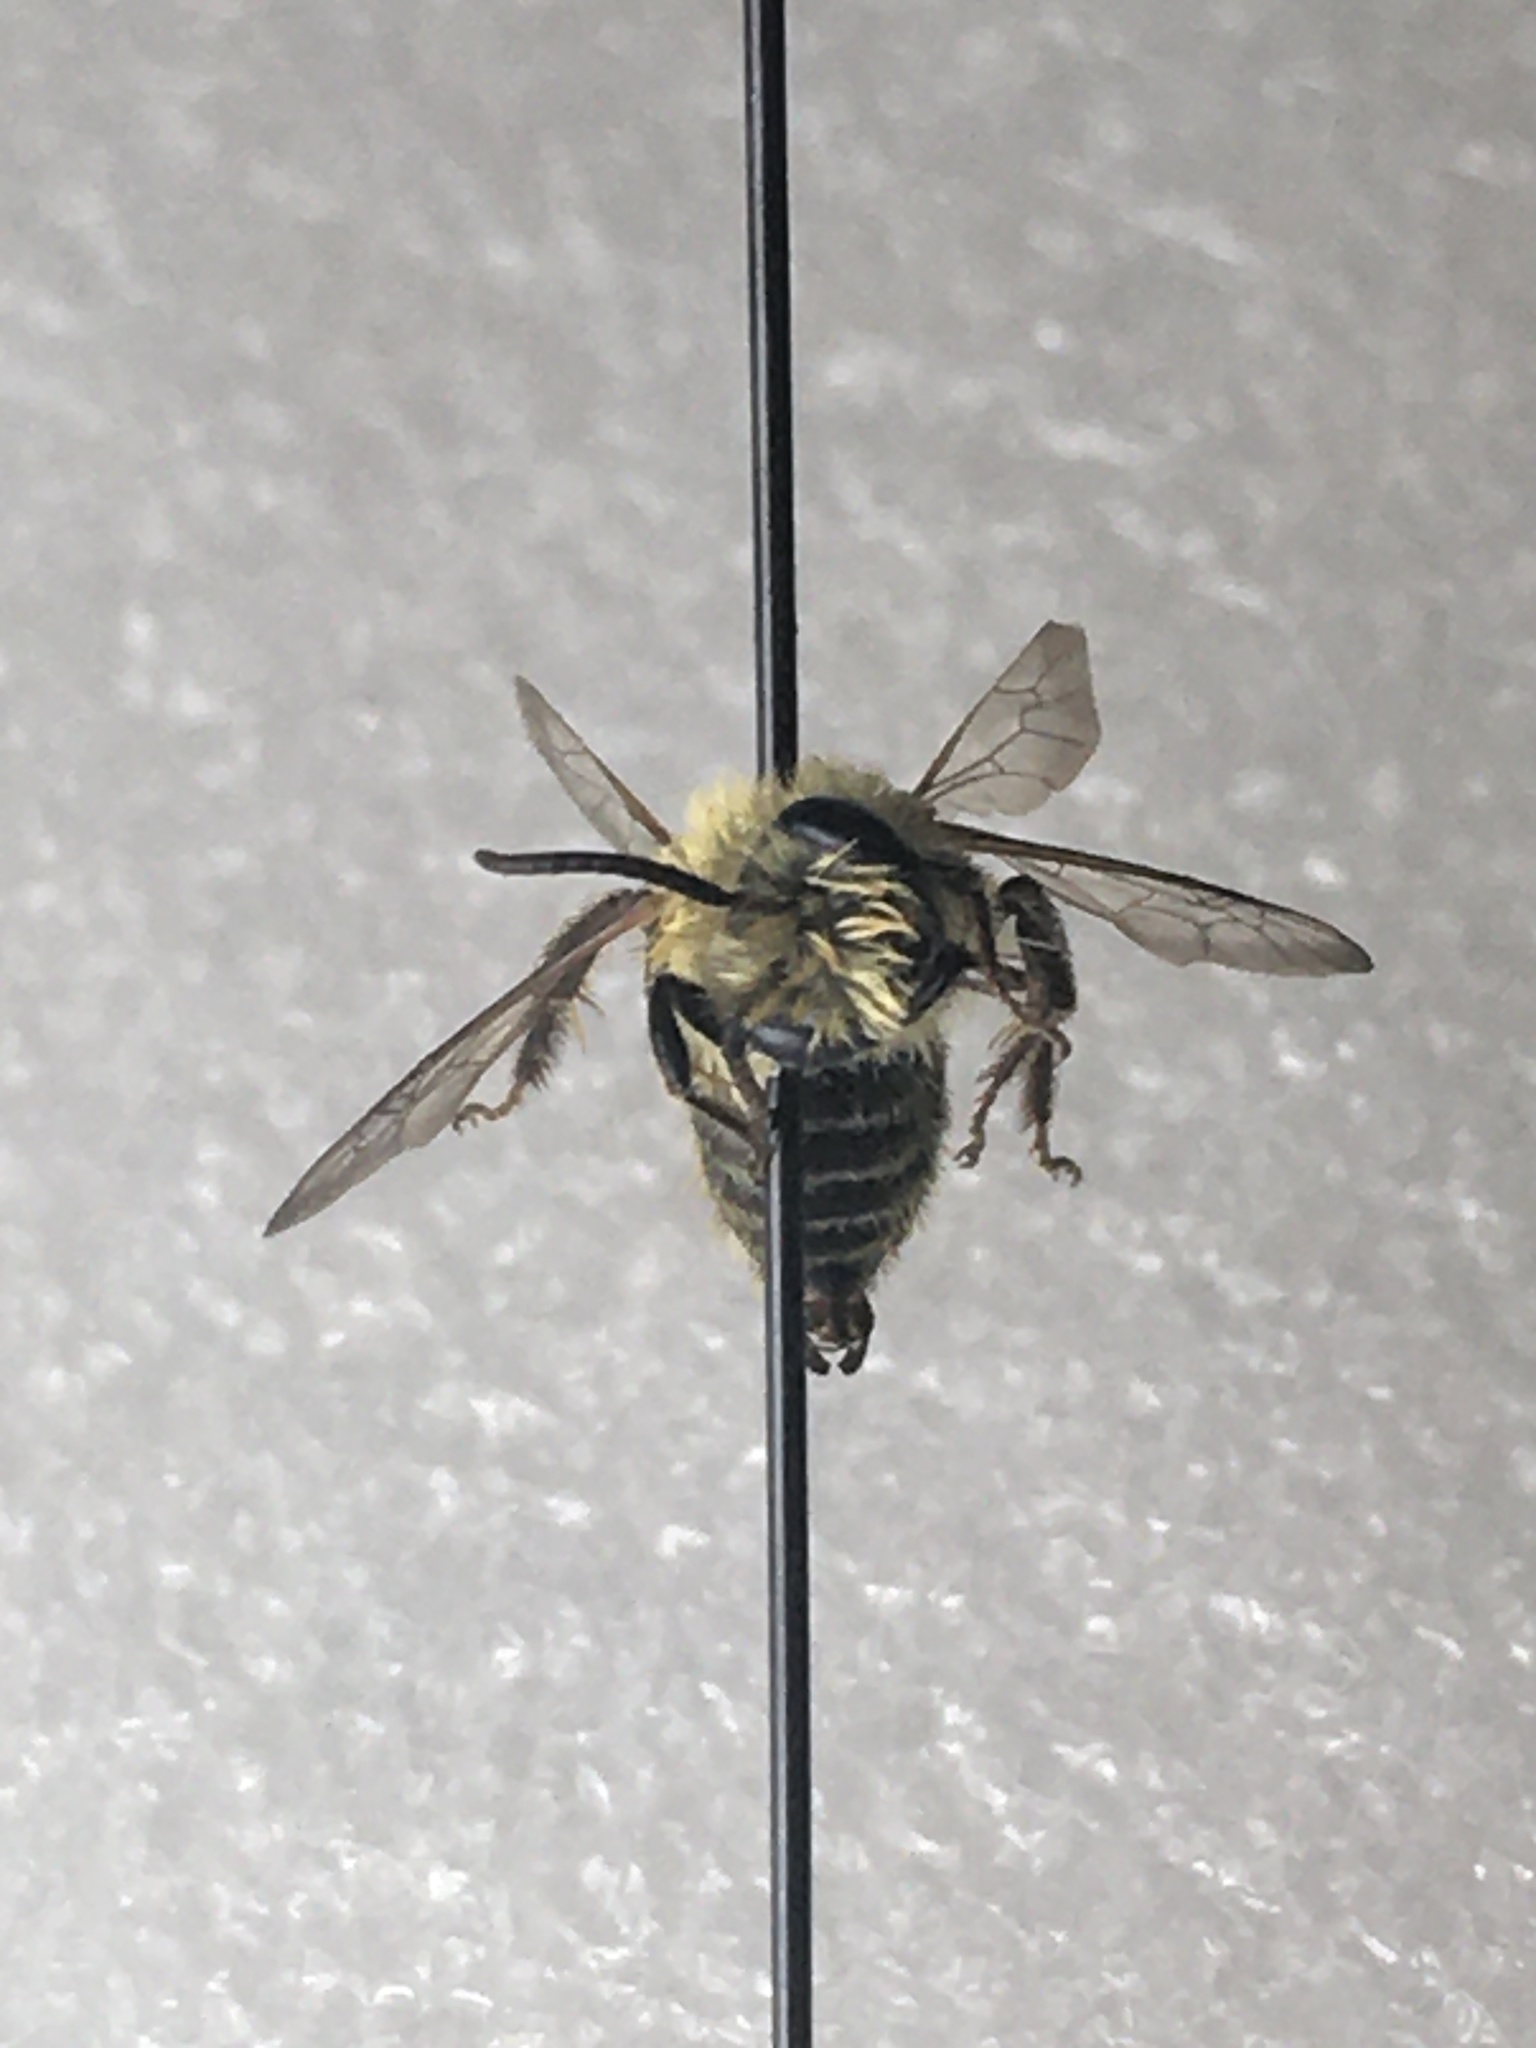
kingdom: Animalia
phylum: Arthropoda
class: Insecta
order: Hymenoptera
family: Andrenidae
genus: Andrena
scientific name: Andrena hirticincta
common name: Hairy-banded mining bee
